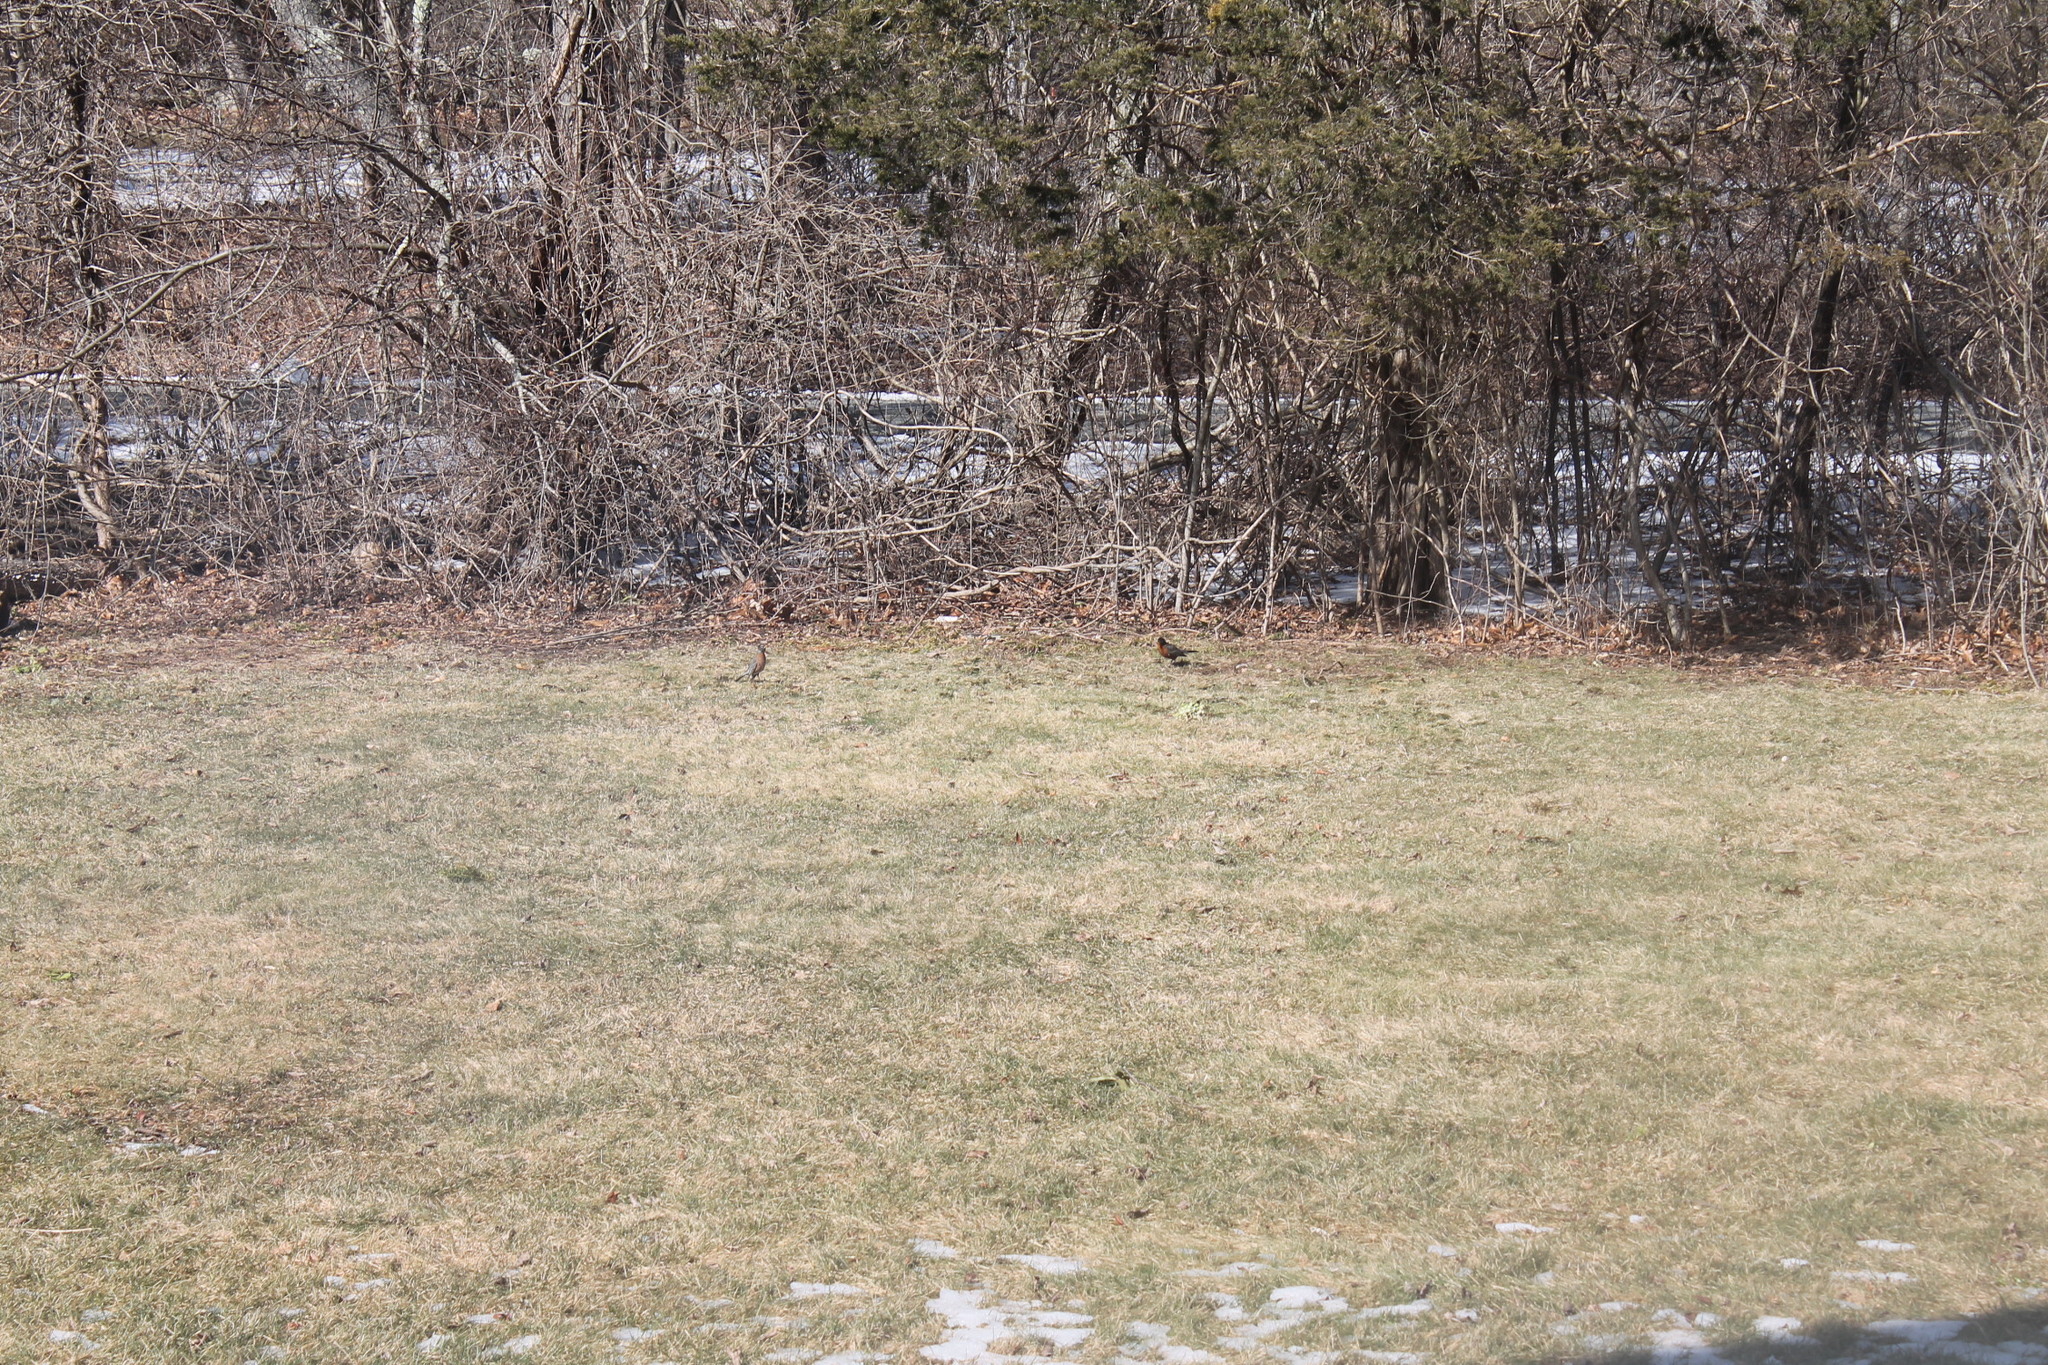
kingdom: Animalia
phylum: Chordata
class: Aves
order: Passeriformes
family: Turdidae
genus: Turdus
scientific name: Turdus migratorius
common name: American robin
